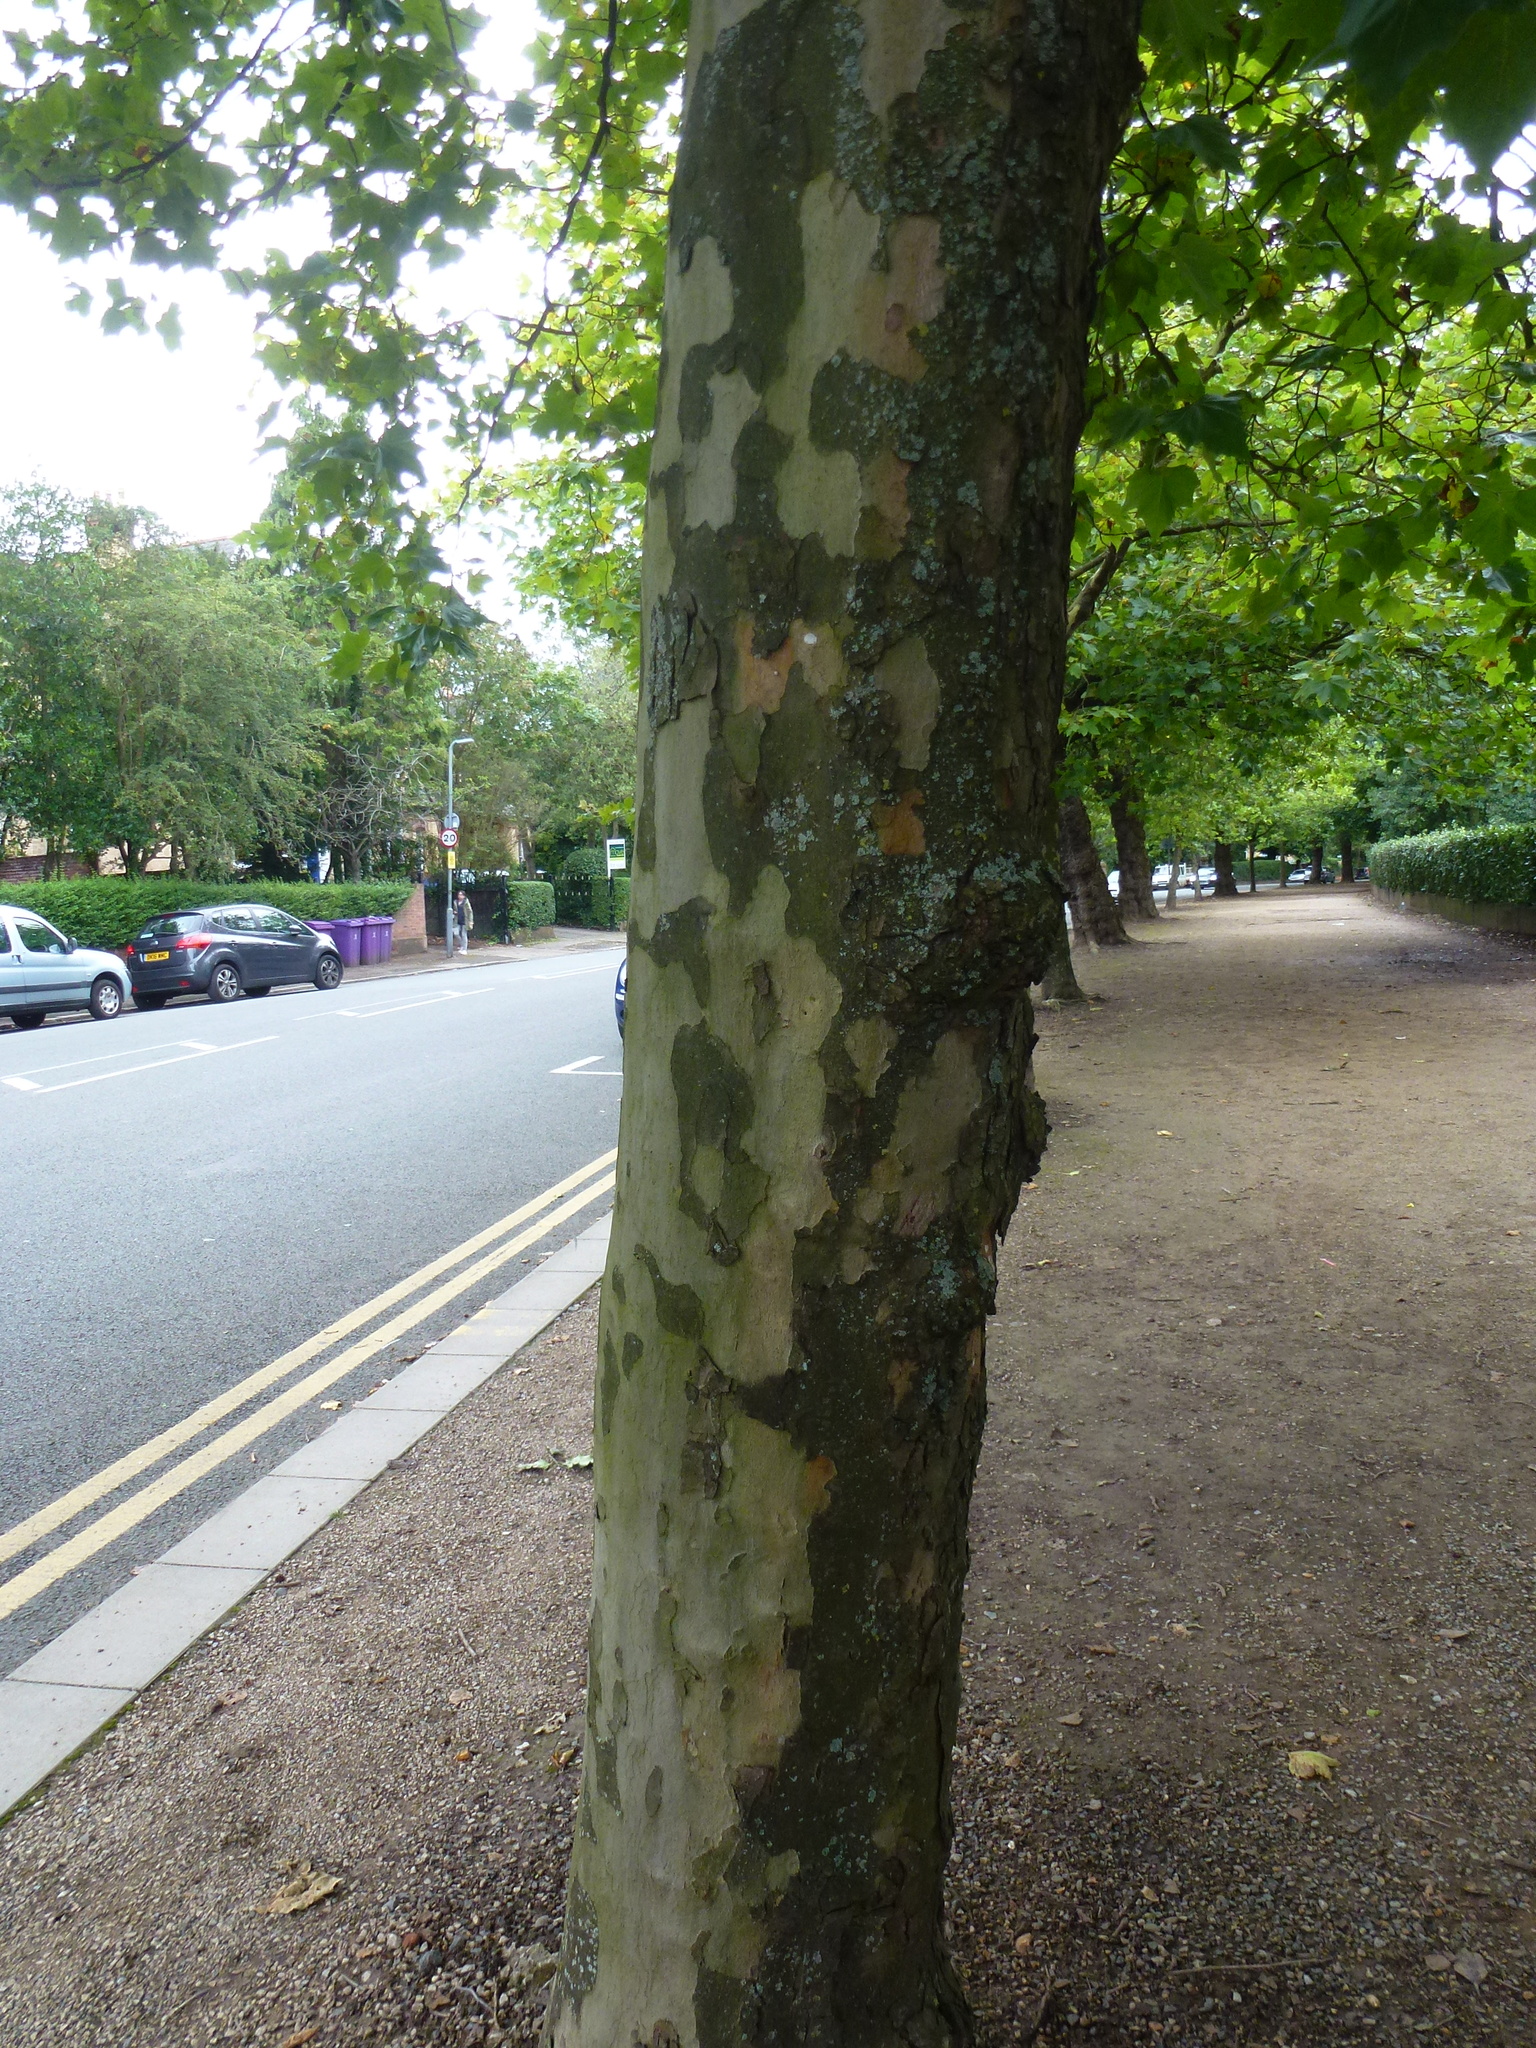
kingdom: Plantae
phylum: Tracheophyta
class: Magnoliopsida
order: Proteales
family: Platanaceae
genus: Platanus
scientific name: Platanus hispanica
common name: London plane
